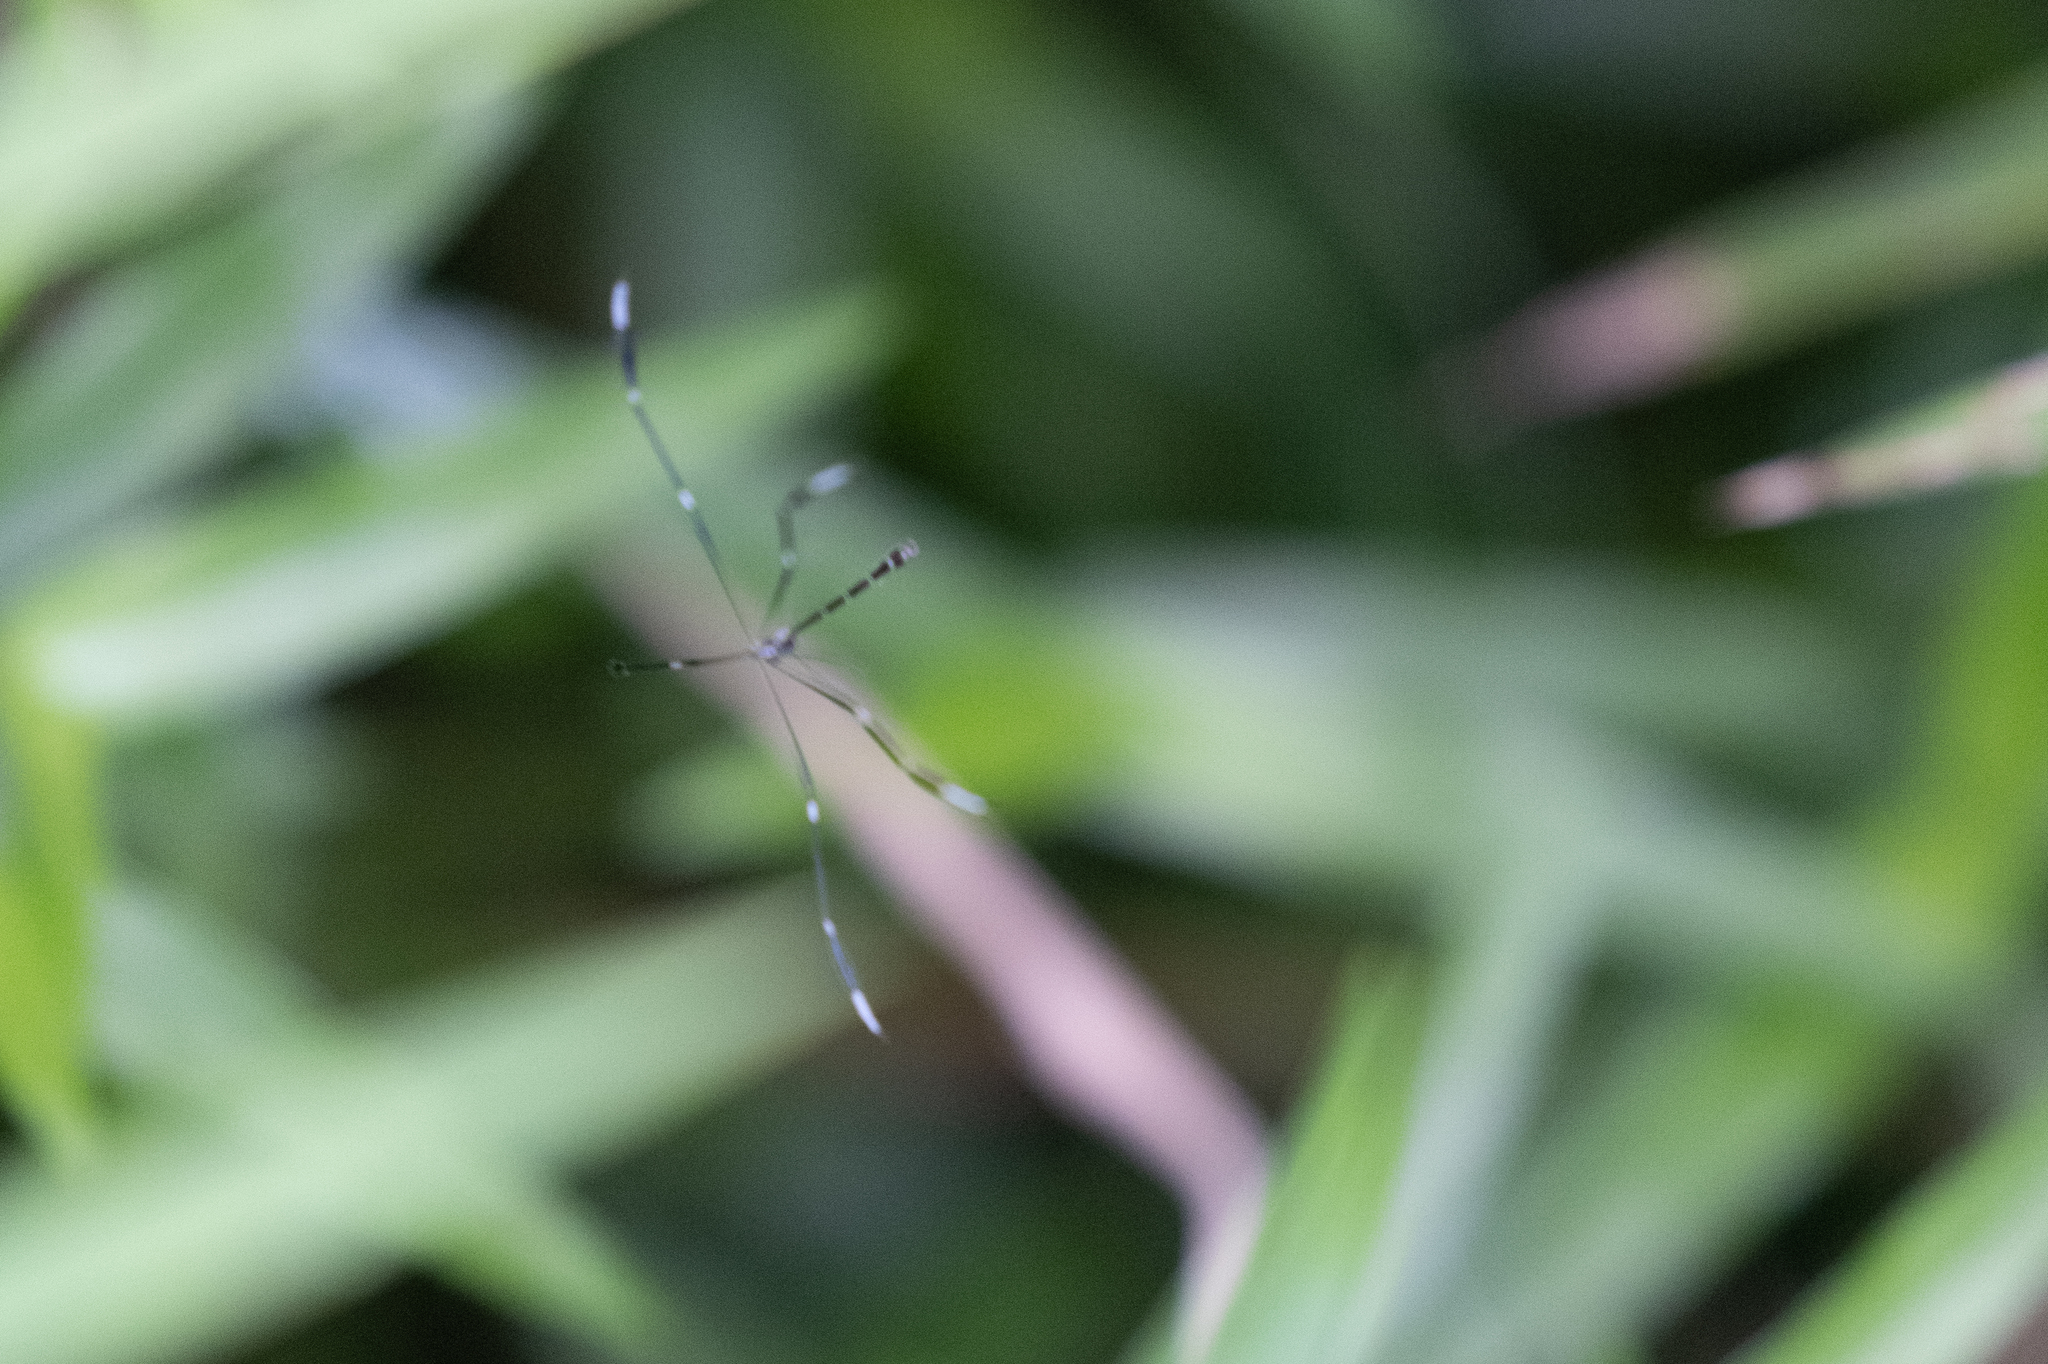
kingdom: Animalia
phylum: Arthropoda
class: Insecta
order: Diptera
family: Ptychopteridae
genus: Bittacomorpha
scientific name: Bittacomorpha clavipes
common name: Eastern phantom crane fly
